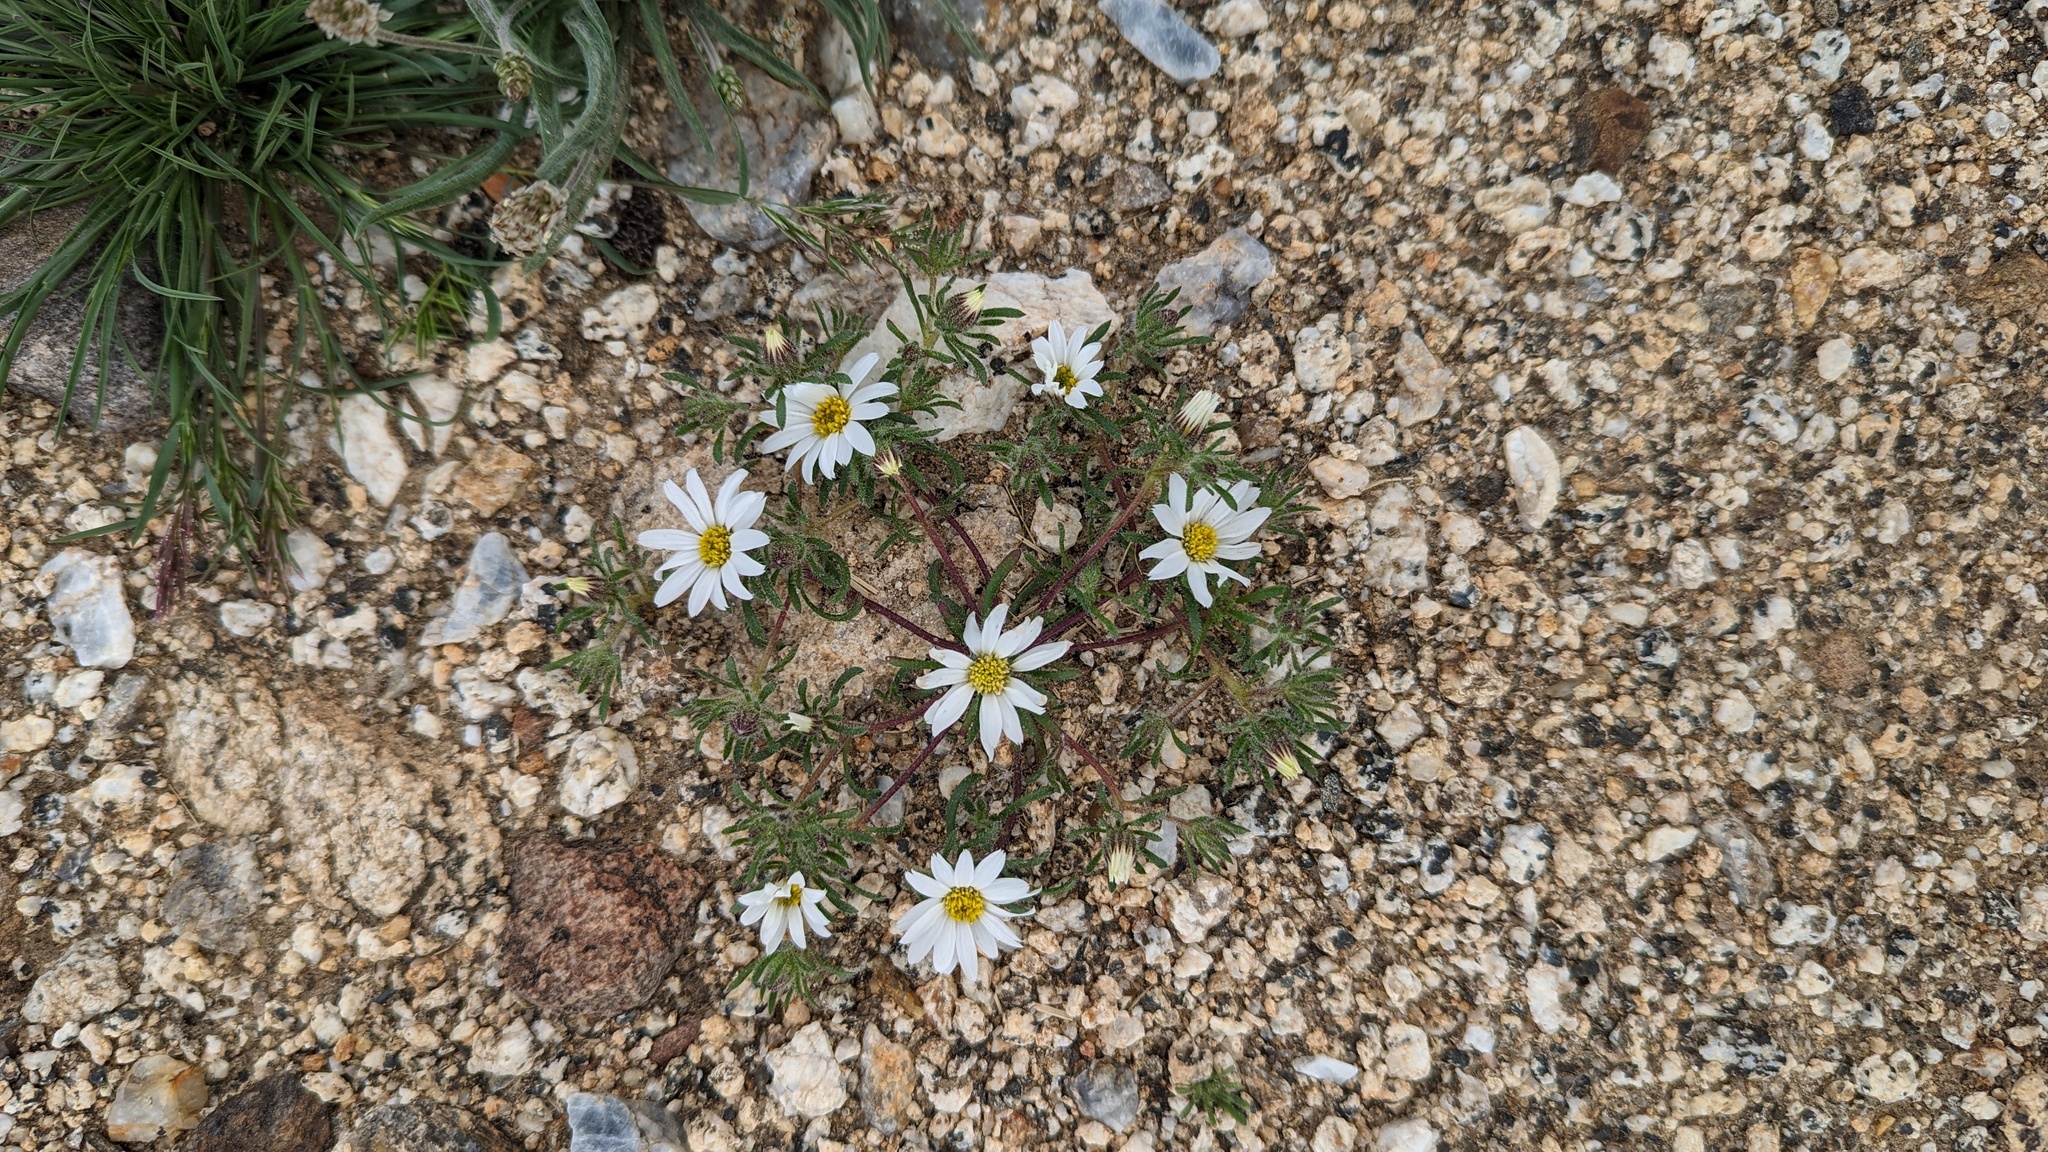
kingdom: Plantae
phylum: Tracheophyta
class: Magnoliopsida
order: Asterales
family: Asteraceae
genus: Monoptilon
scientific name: Monoptilon bellioides
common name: Bristly desertstar
